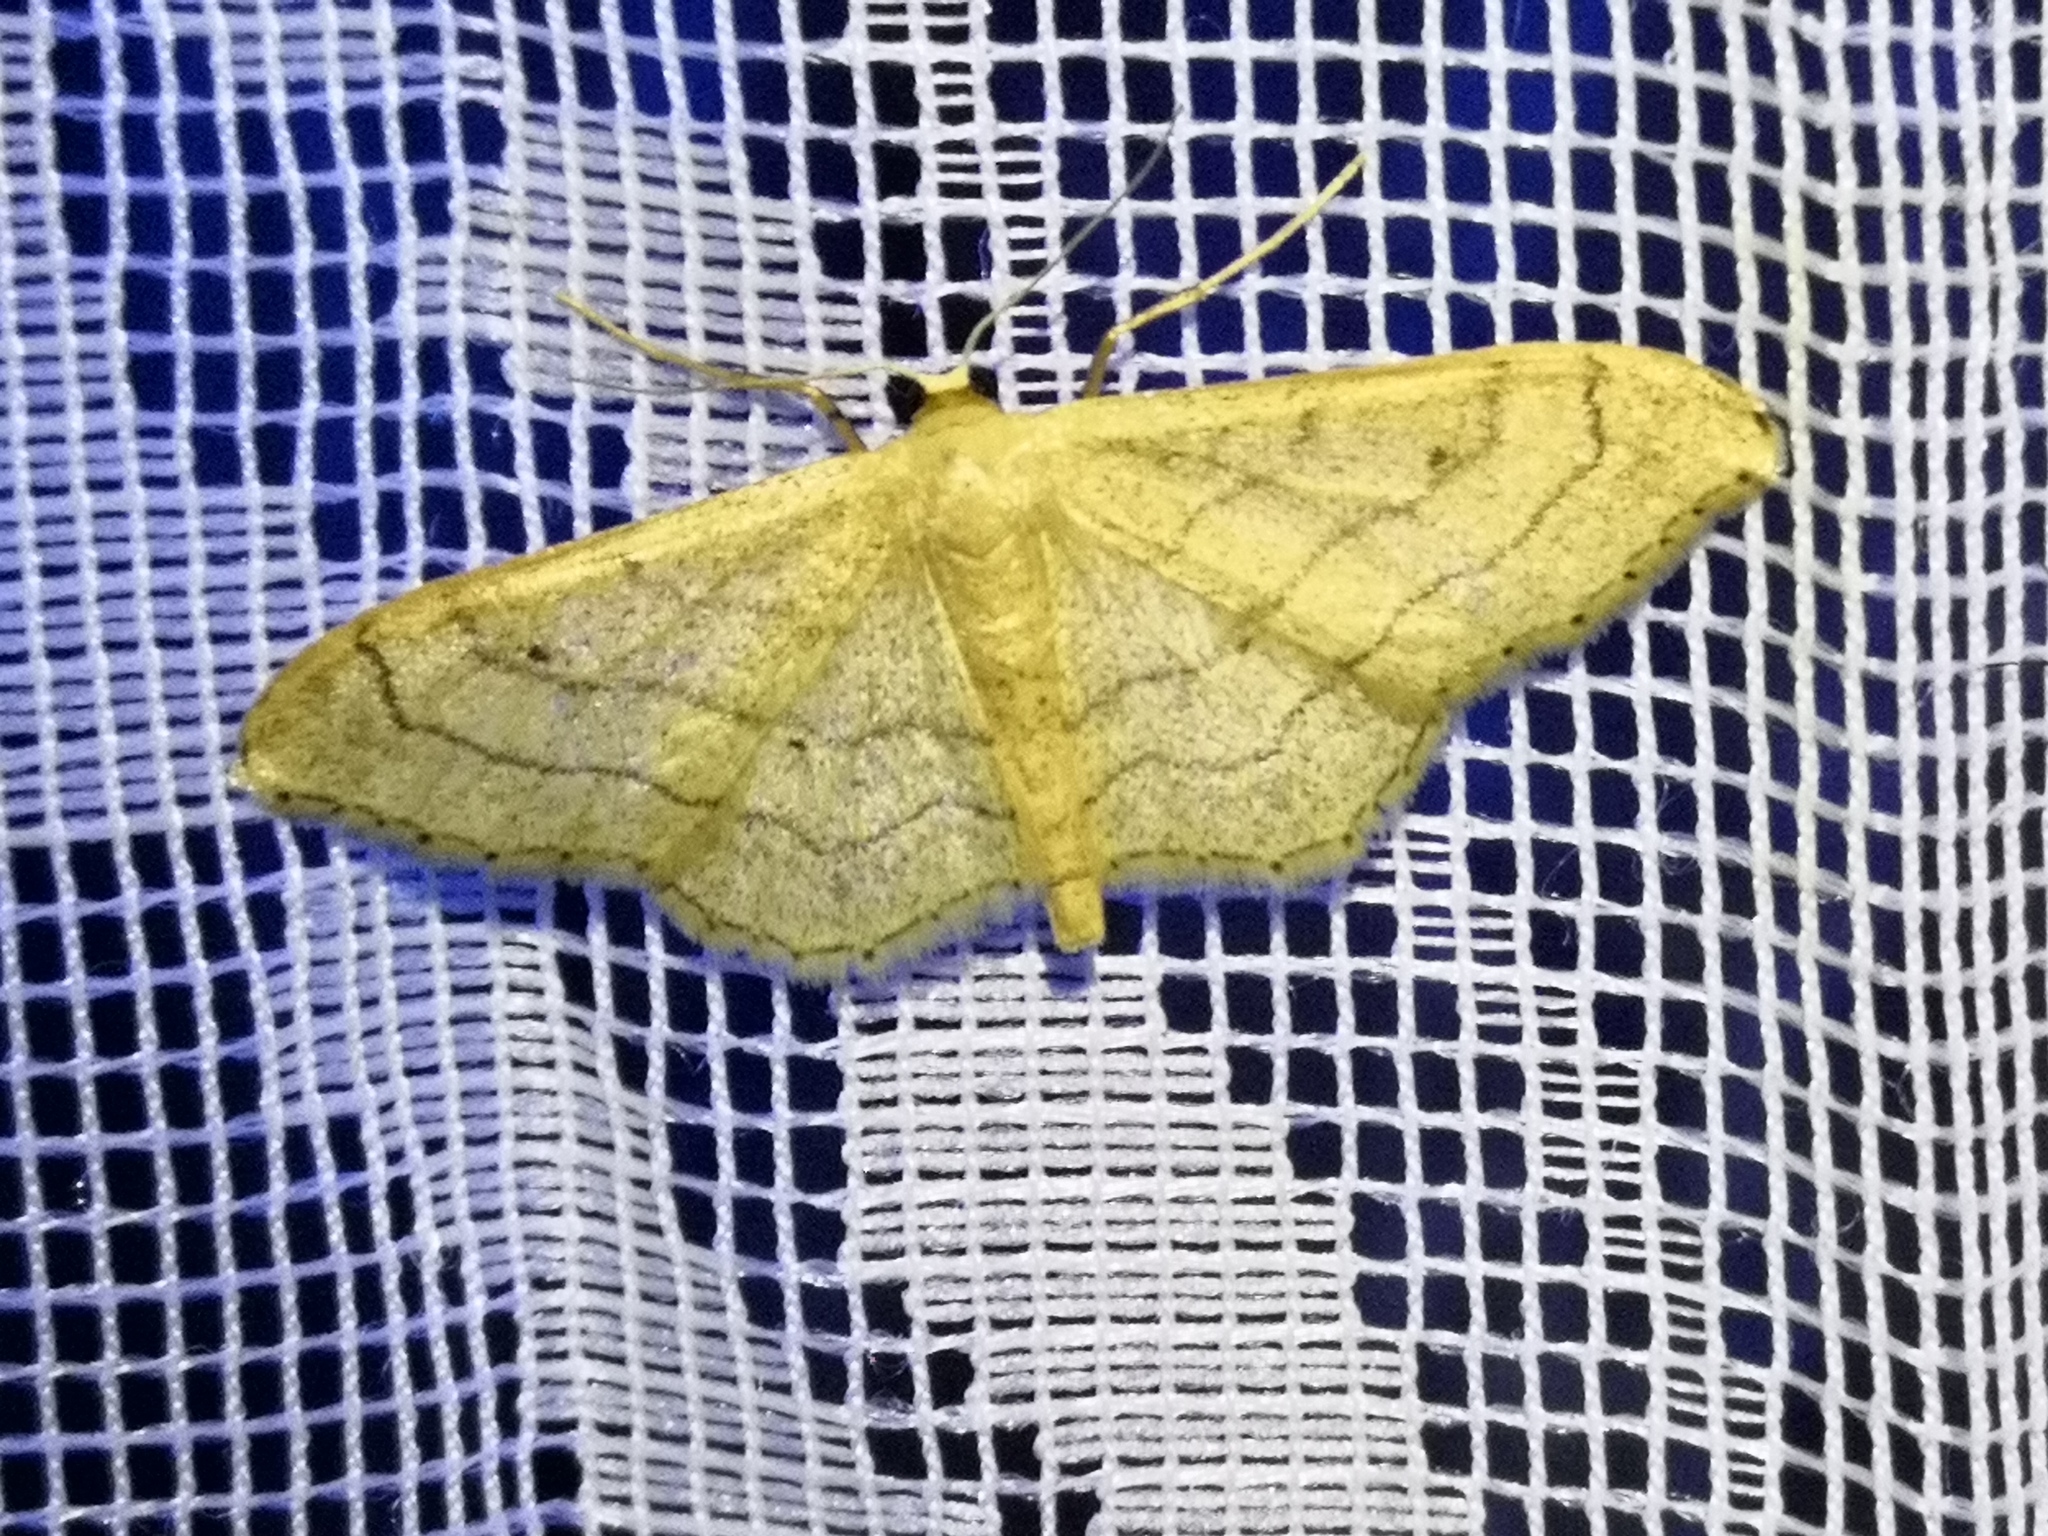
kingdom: Animalia
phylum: Arthropoda
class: Insecta
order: Lepidoptera
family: Geometridae
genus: Idaea
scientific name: Idaea aversata
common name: Riband wave
